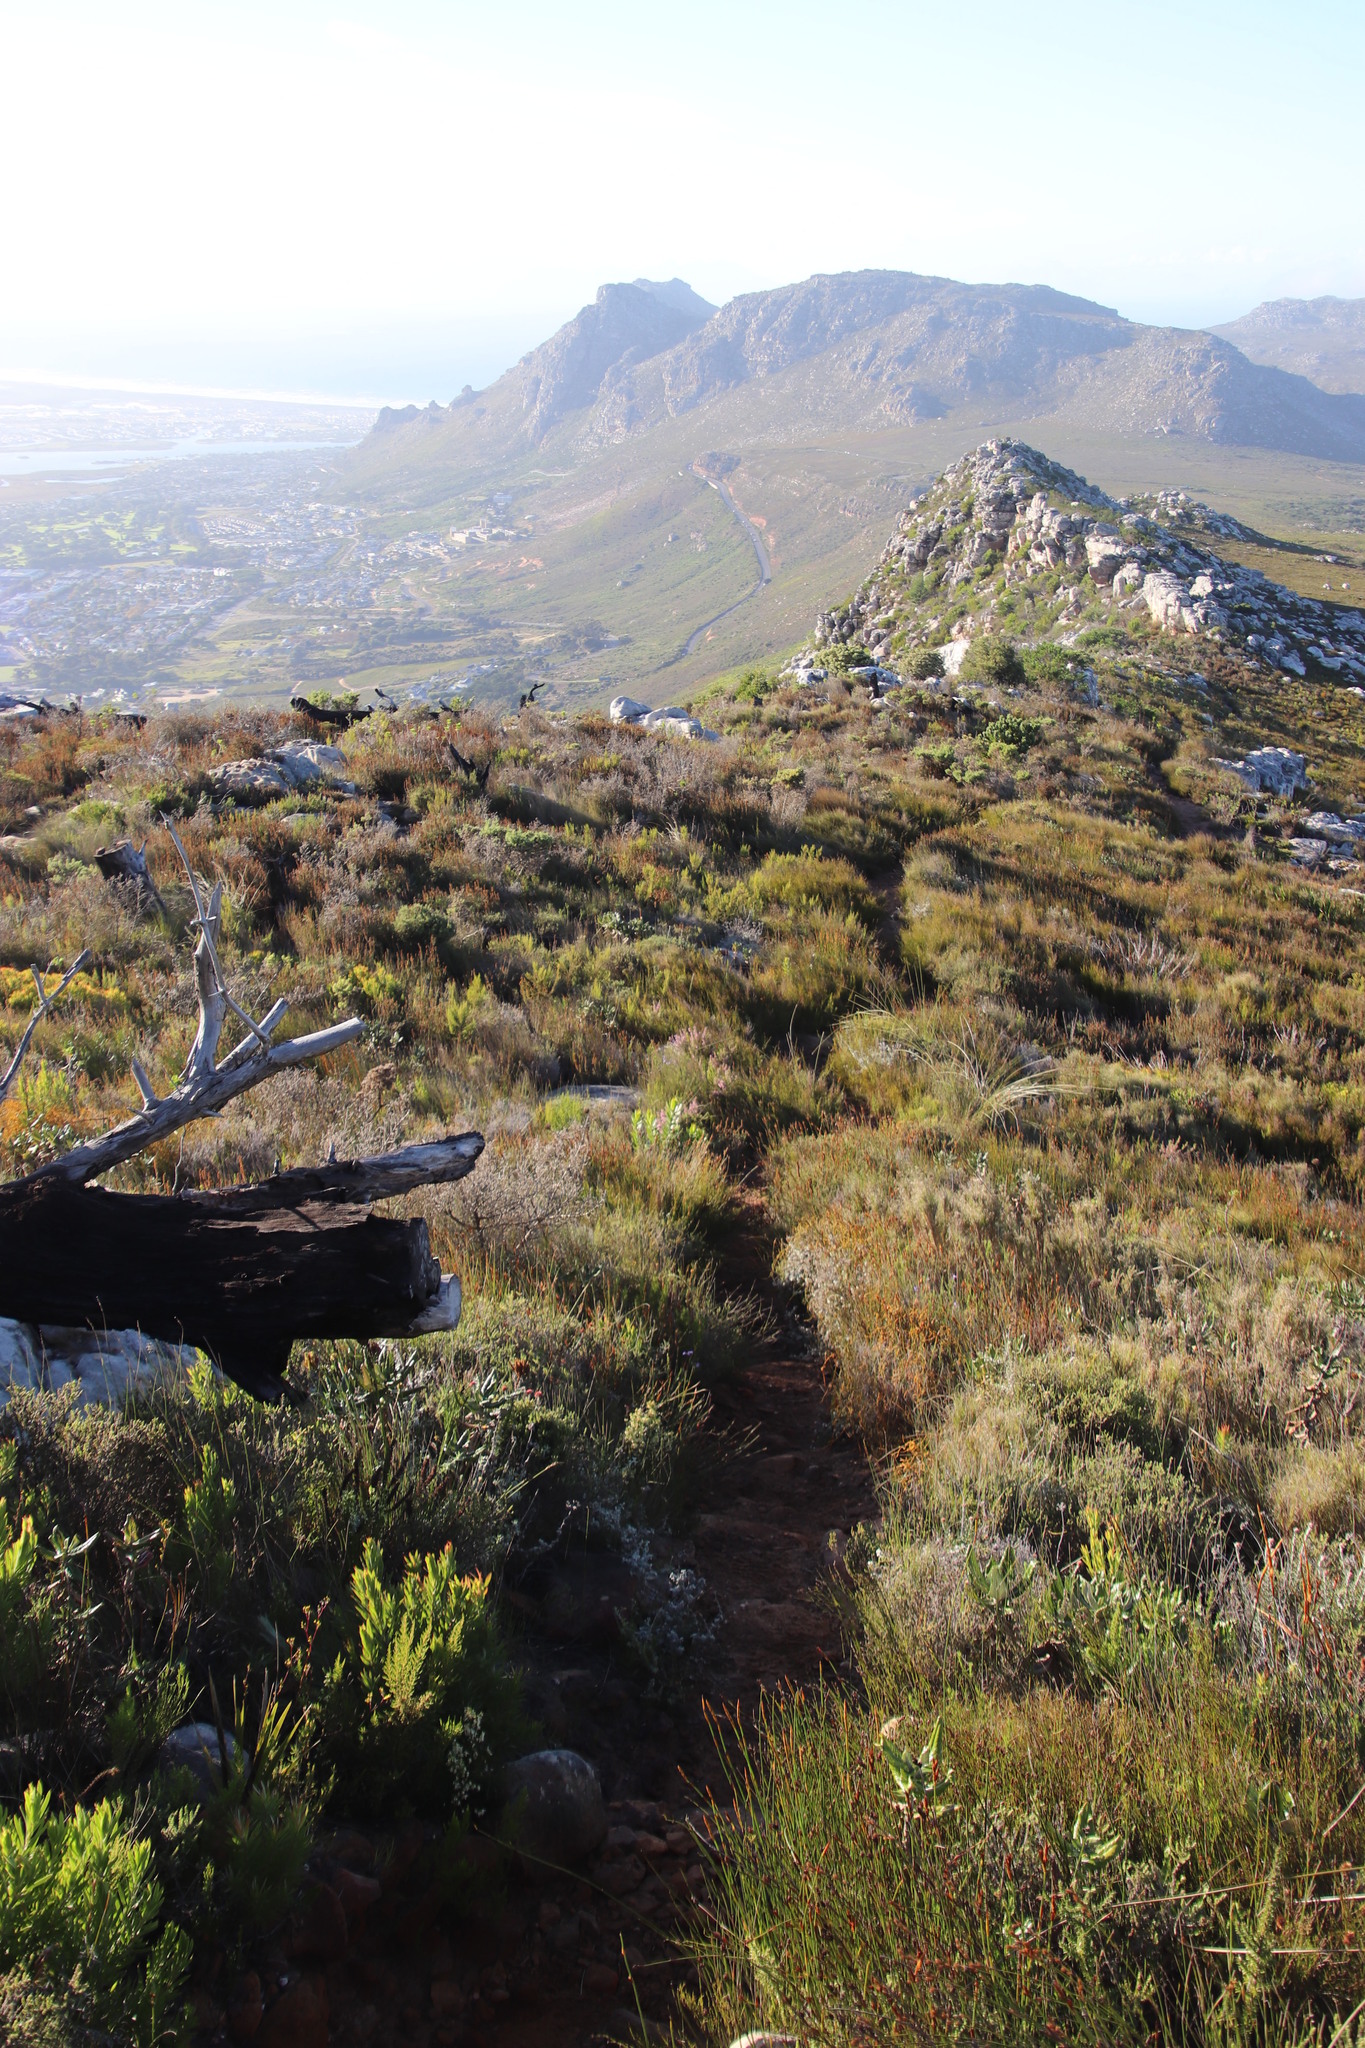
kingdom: Plantae
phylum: Tracheophyta
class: Magnoliopsida
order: Ericales
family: Ericaceae
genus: Erica
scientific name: Erica hirtiflora
